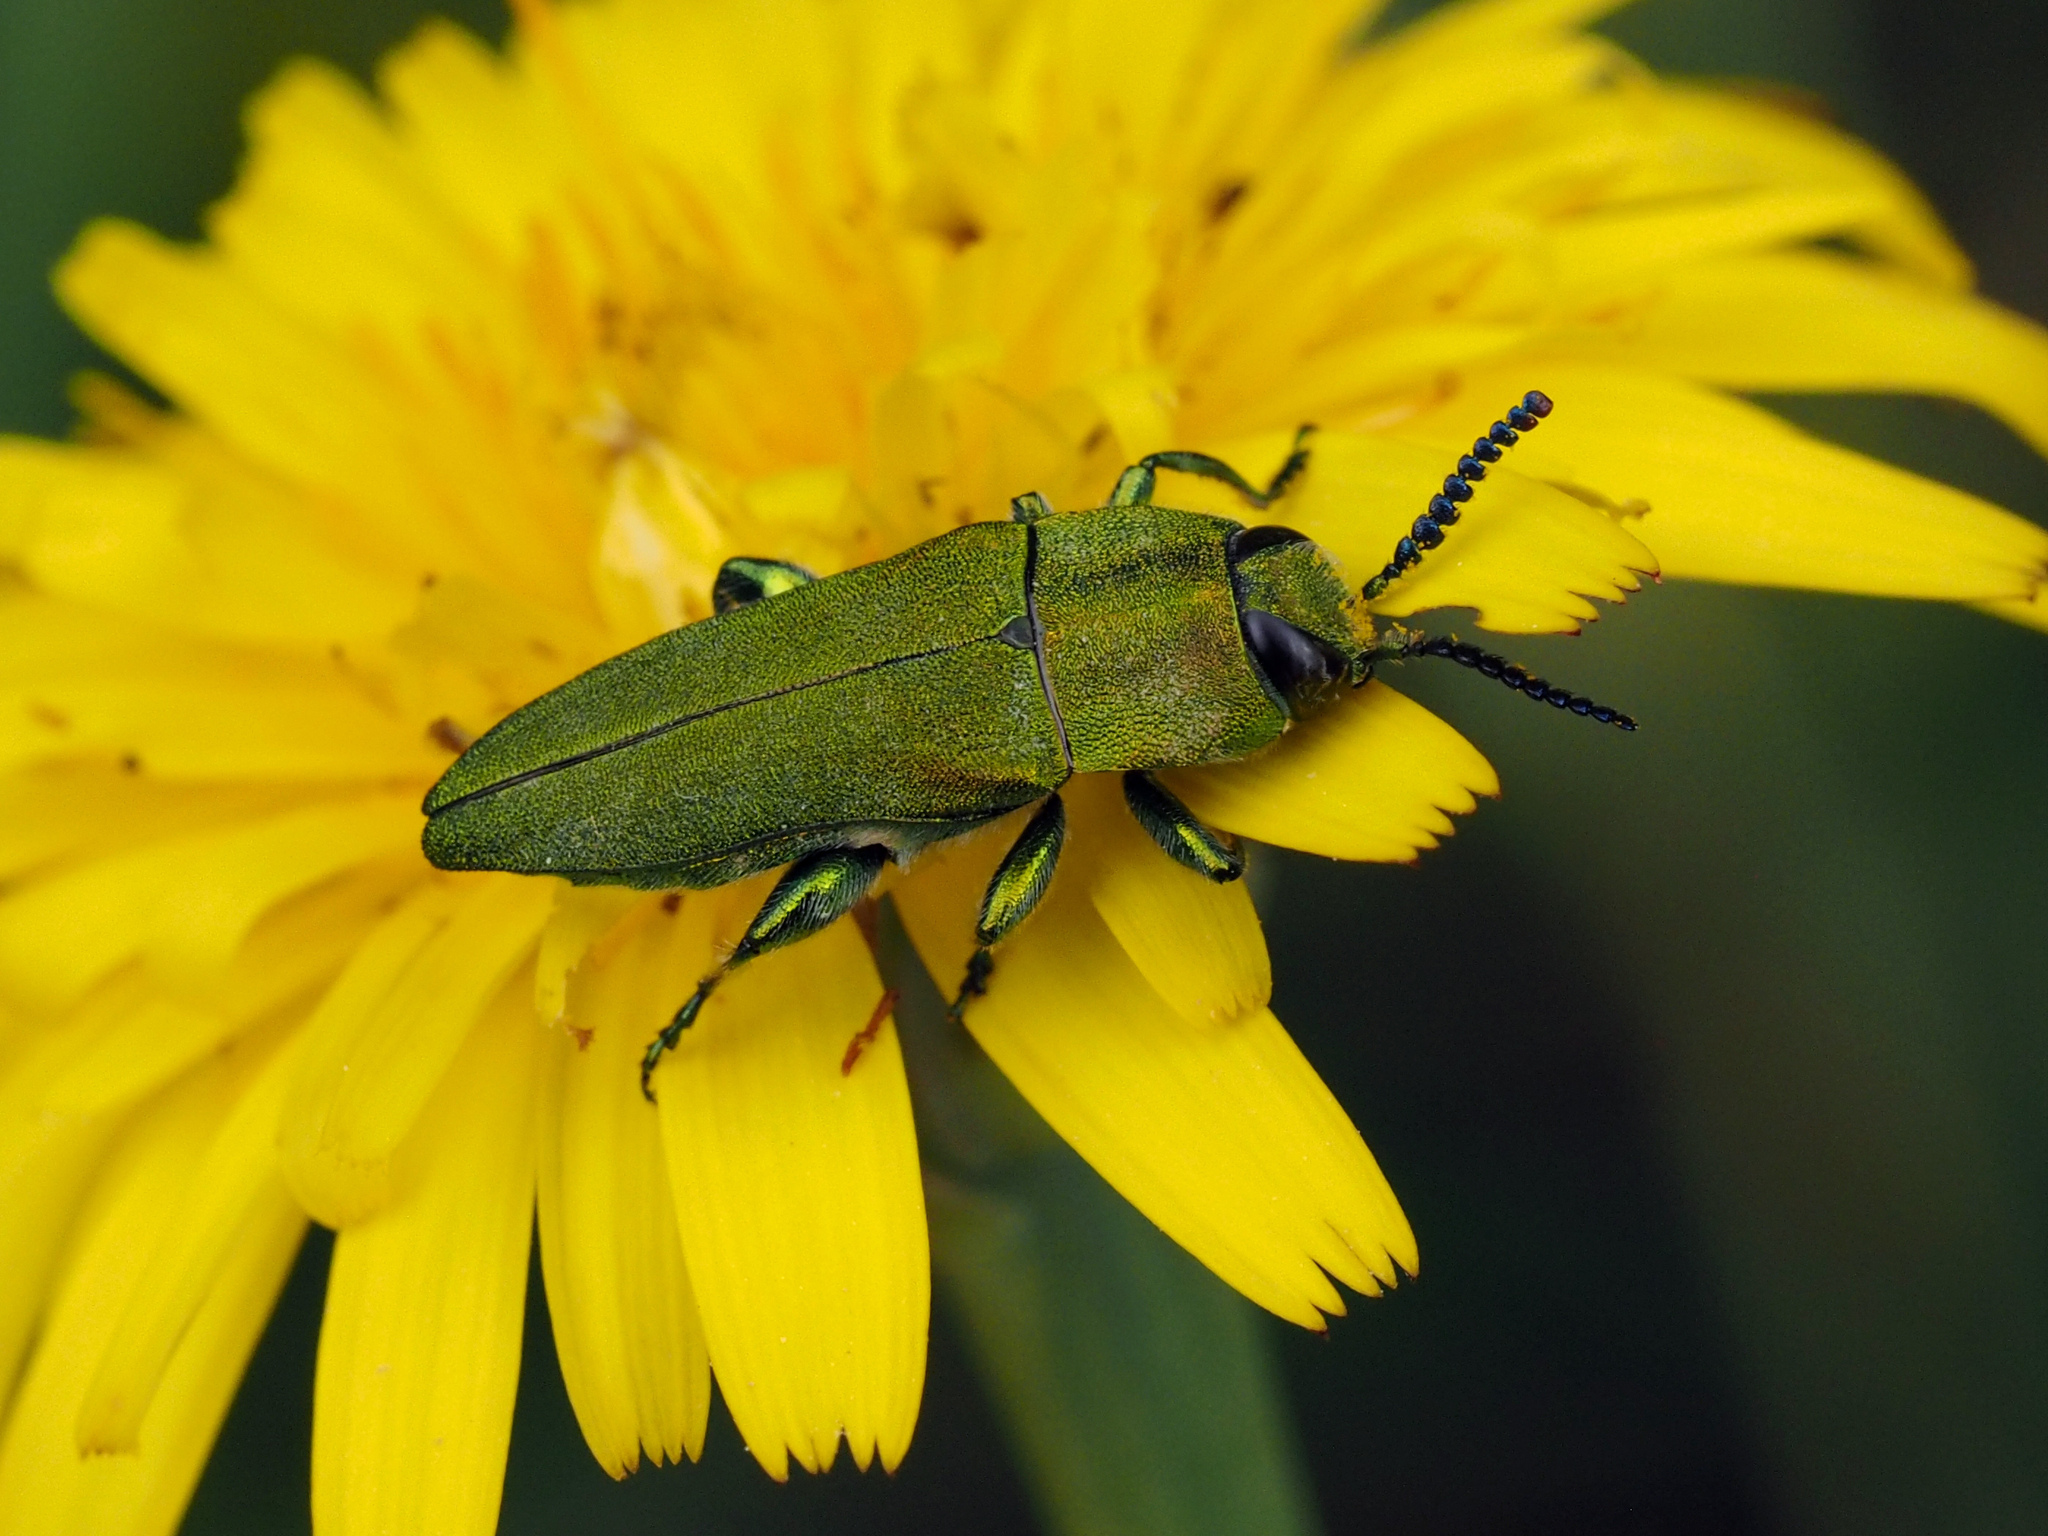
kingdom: Animalia
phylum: Arthropoda
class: Insecta
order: Coleoptera
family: Buprestidae
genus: Anthaxia
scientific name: Anthaxia hungarica
